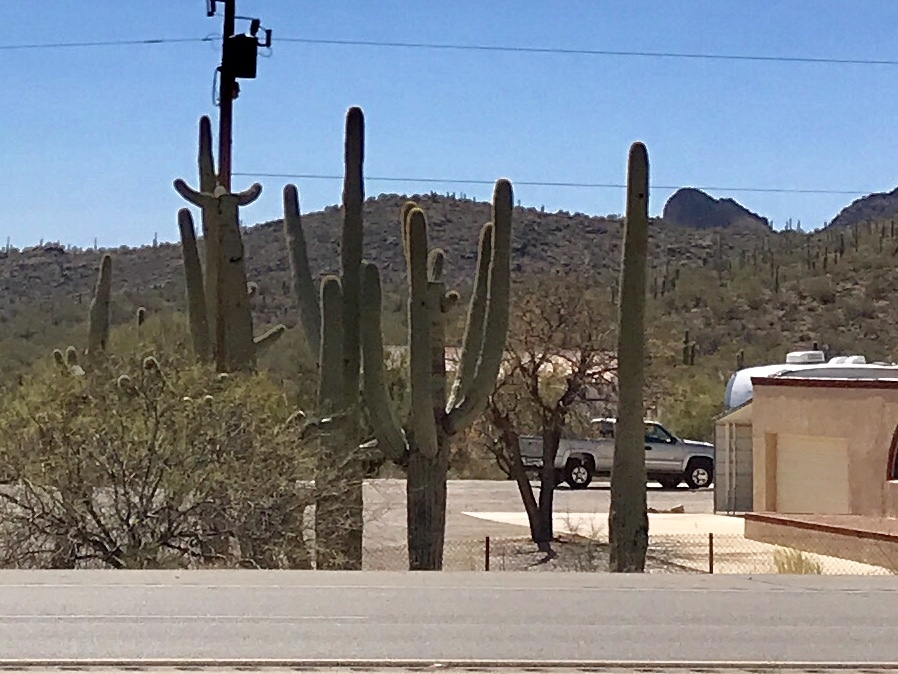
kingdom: Plantae
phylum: Tracheophyta
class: Magnoliopsida
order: Caryophyllales
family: Cactaceae
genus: Carnegiea
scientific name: Carnegiea gigantea
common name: Saguaro
